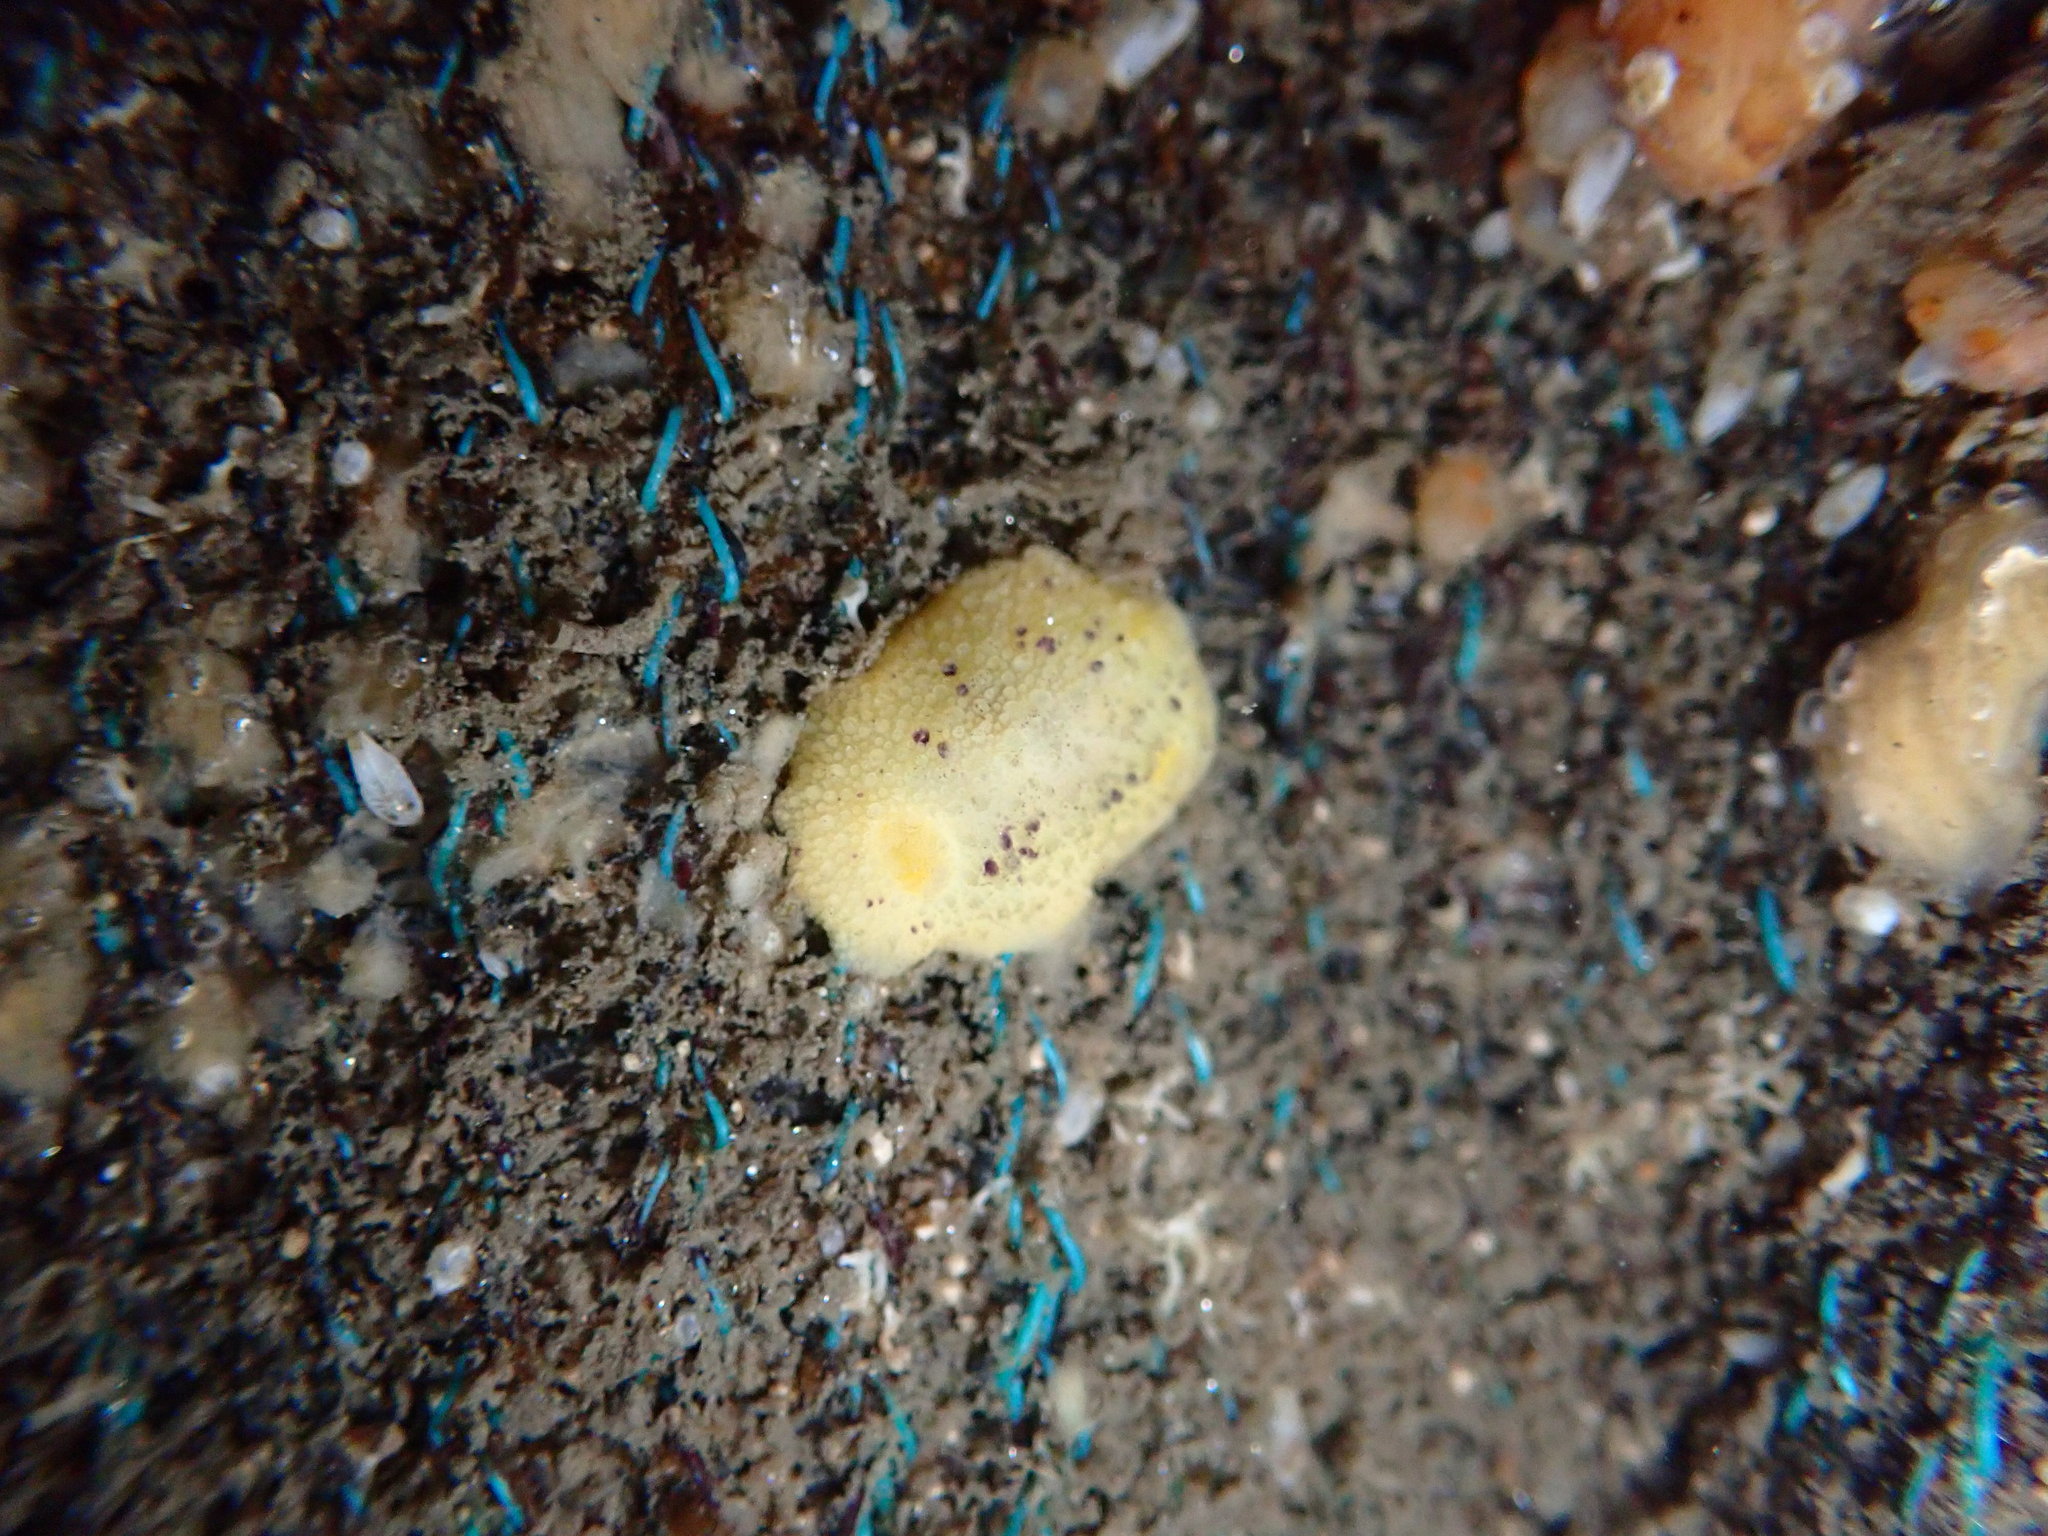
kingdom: Animalia
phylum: Mollusca
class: Gastropoda
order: Nudibranchia
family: Dorididae
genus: Doris
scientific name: Doris montereyensis
